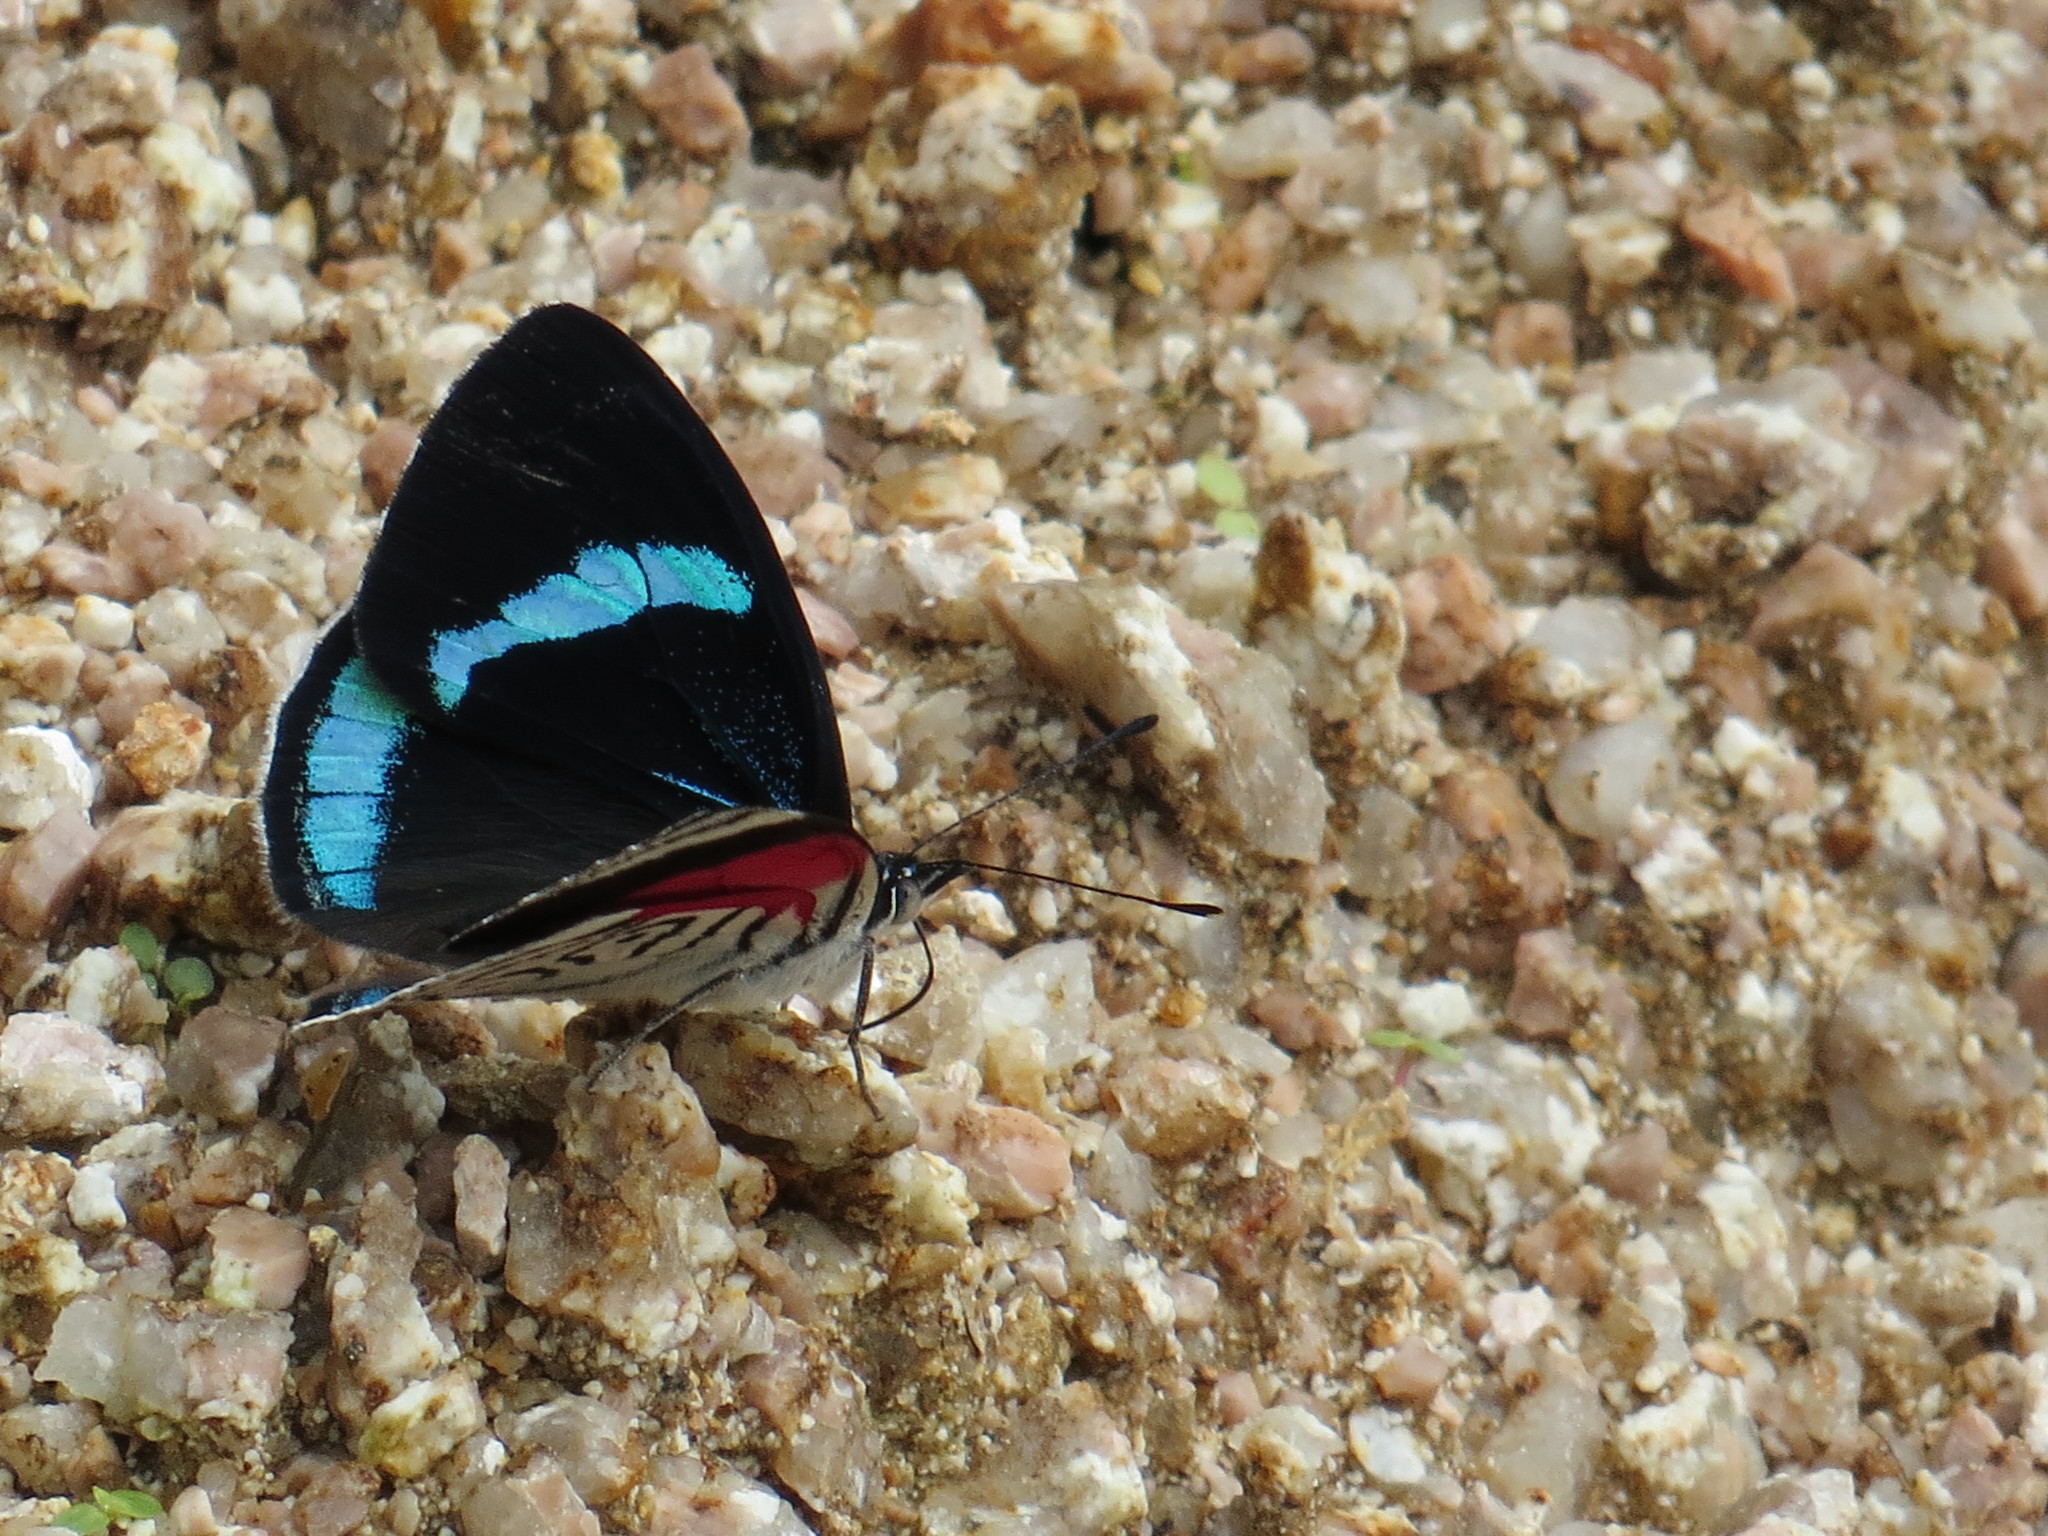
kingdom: Animalia
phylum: Arthropoda
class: Insecta
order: Lepidoptera
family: Nymphalidae
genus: Diaethria
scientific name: Diaethria neglecta
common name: Neglected eighty-eight
